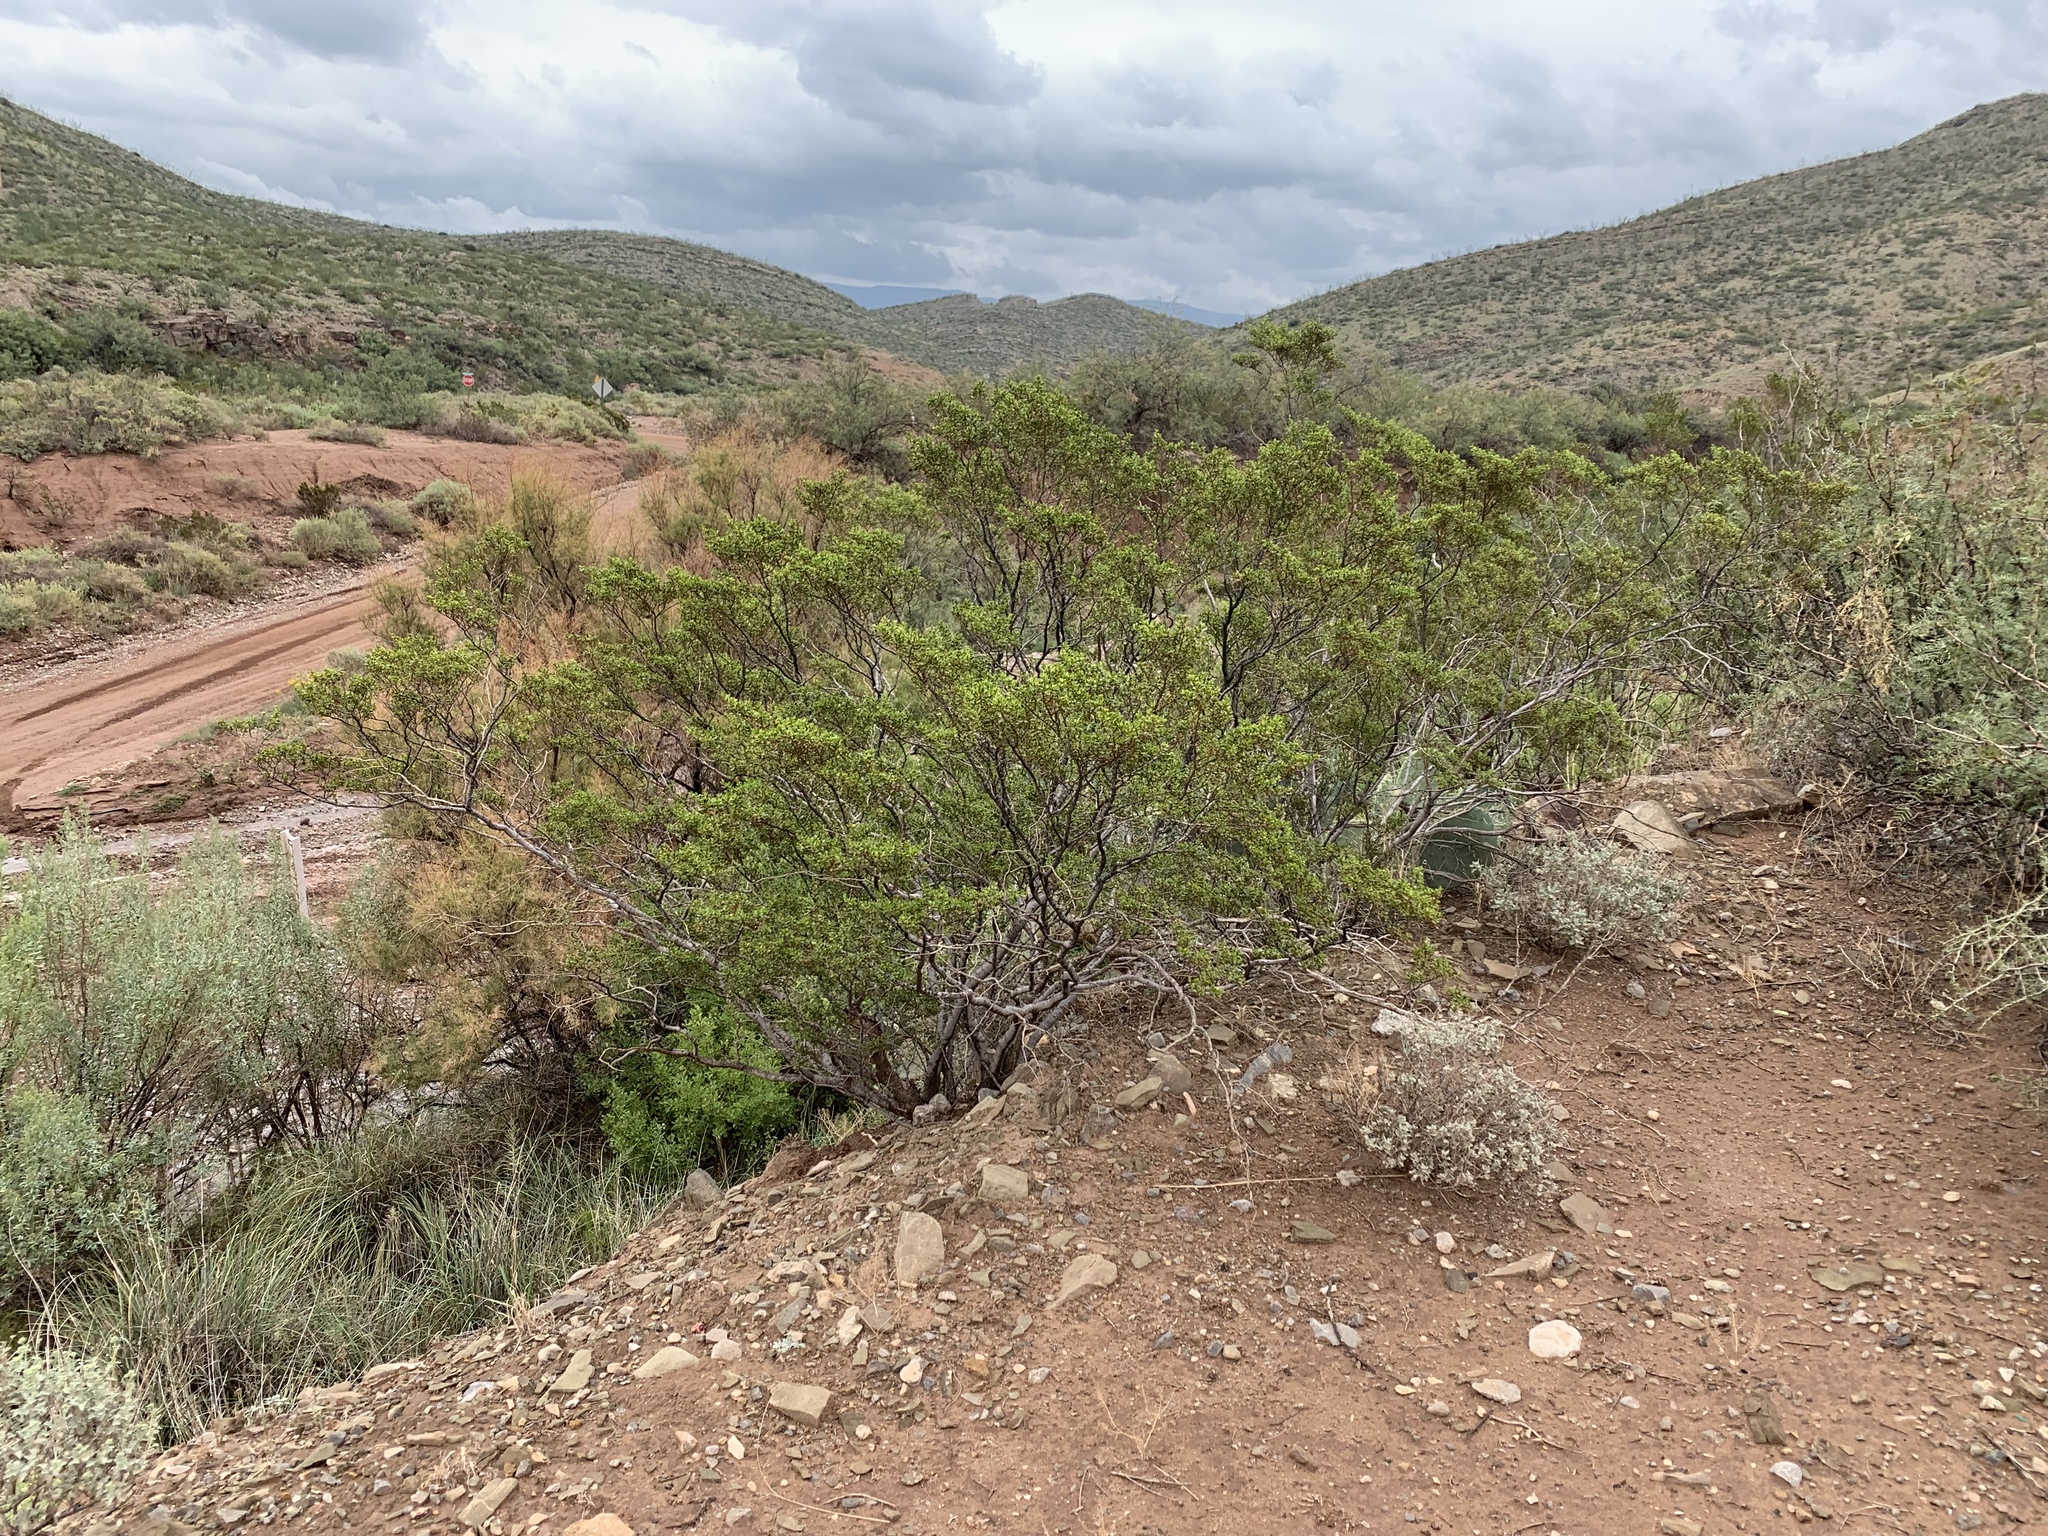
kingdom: Plantae
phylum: Tracheophyta
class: Magnoliopsida
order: Zygophyllales
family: Zygophyllaceae
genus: Larrea
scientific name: Larrea tridentata
